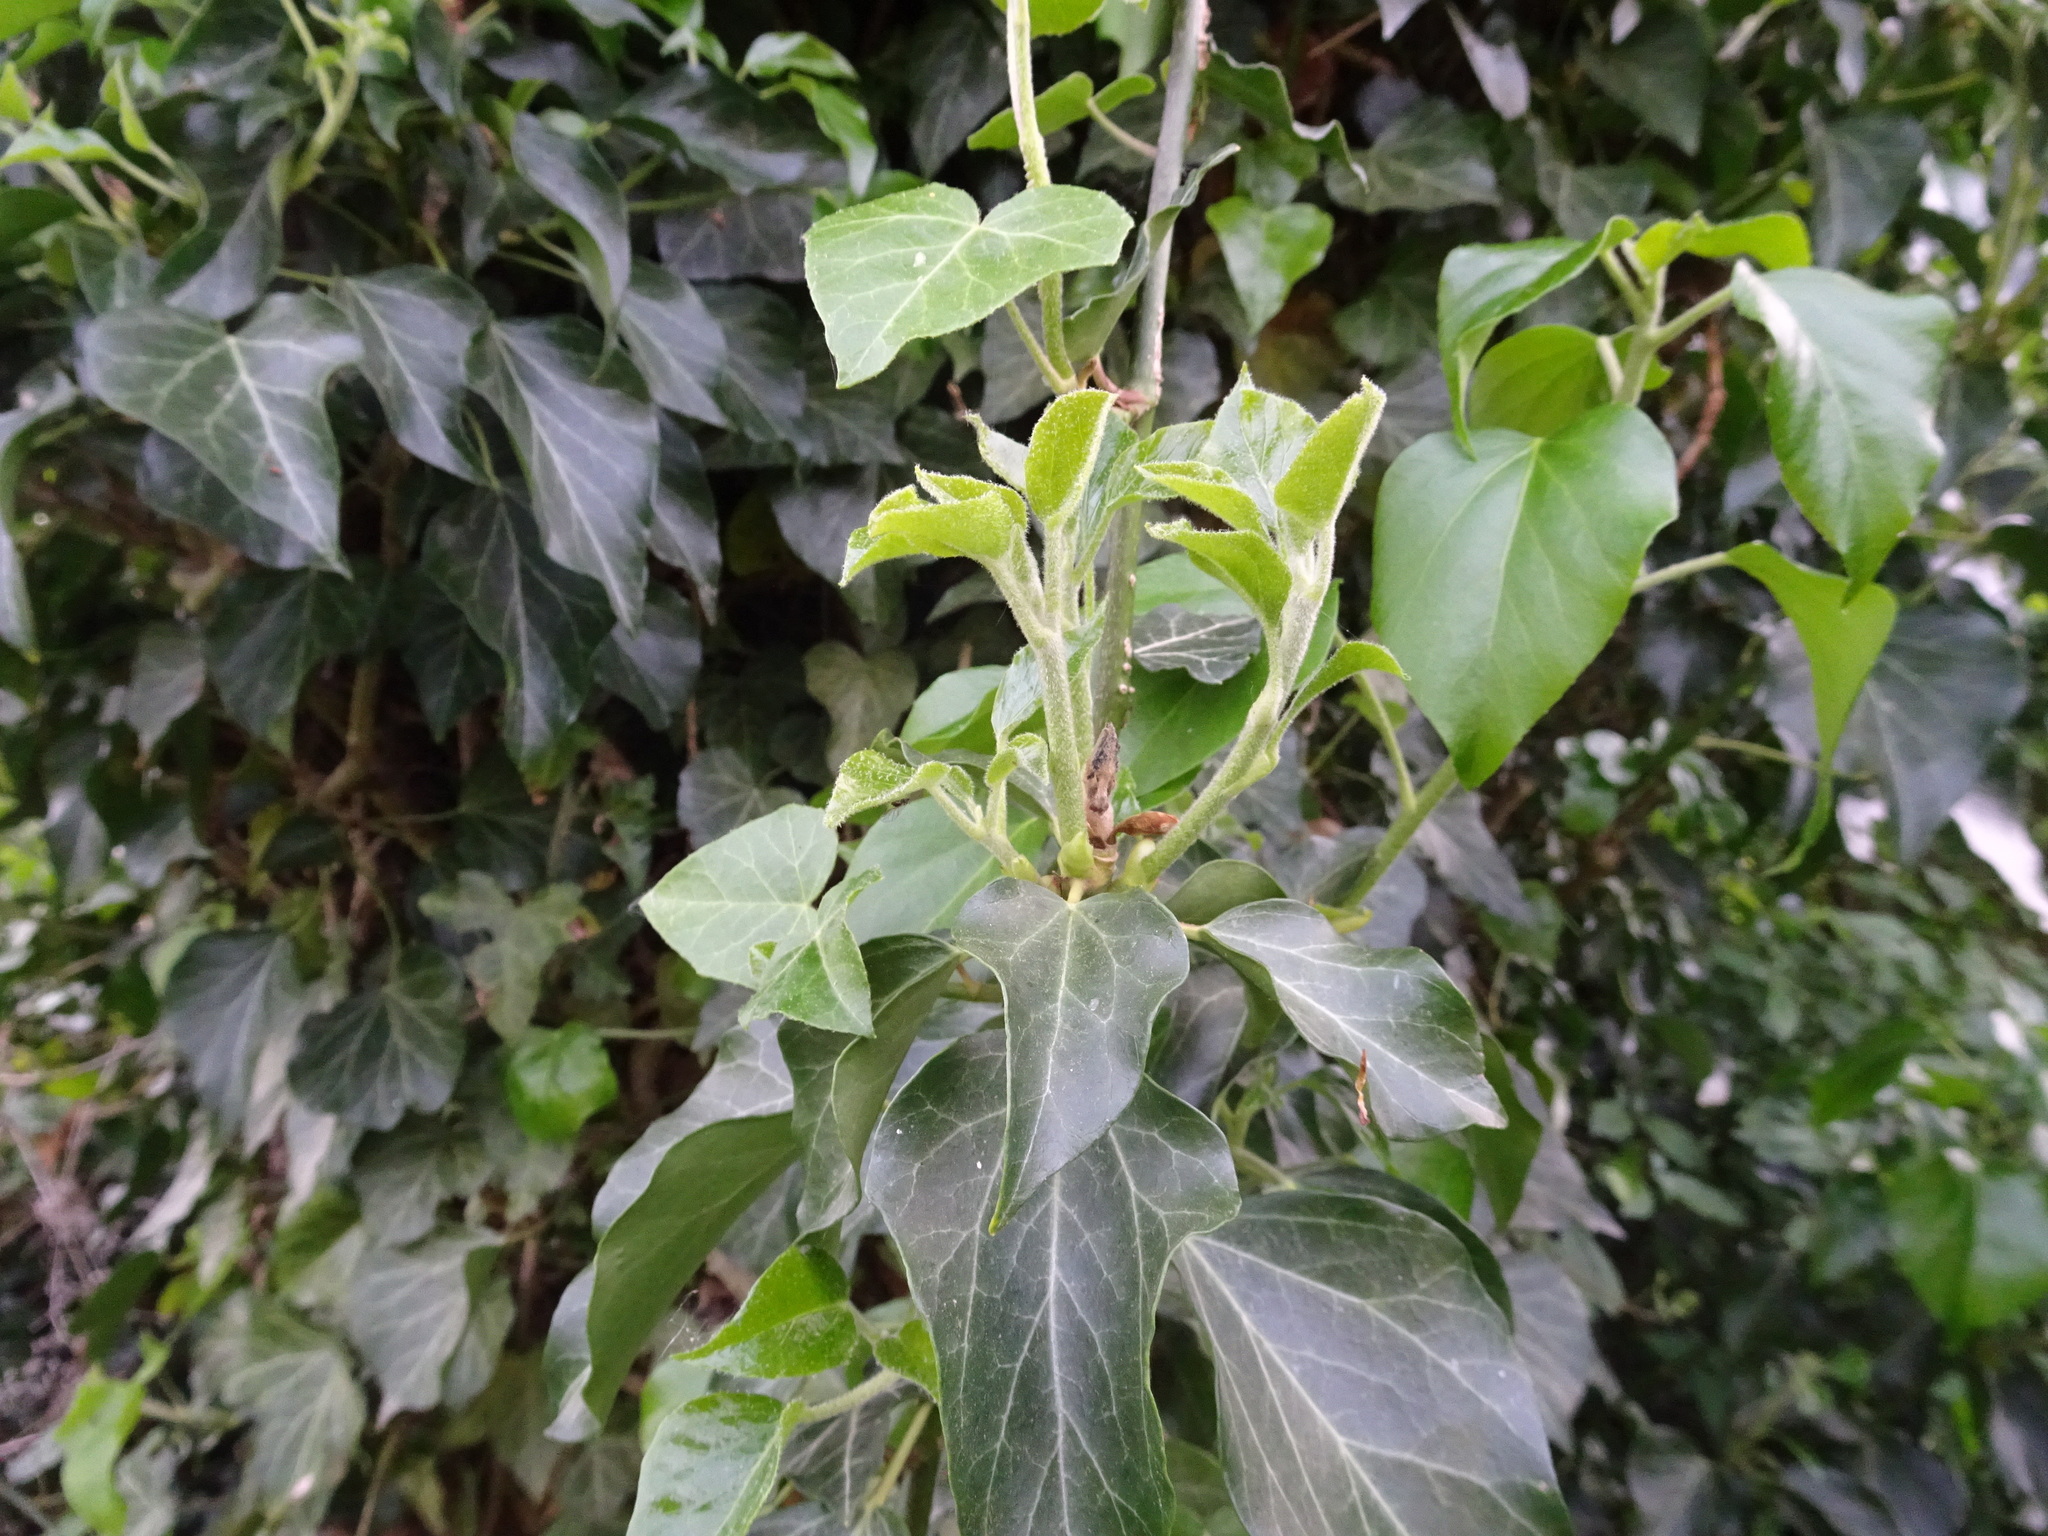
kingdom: Plantae
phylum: Tracheophyta
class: Magnoliopsida
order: Apiales
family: Araliaceae
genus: Hedera
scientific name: Hedera helix
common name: Ivy
